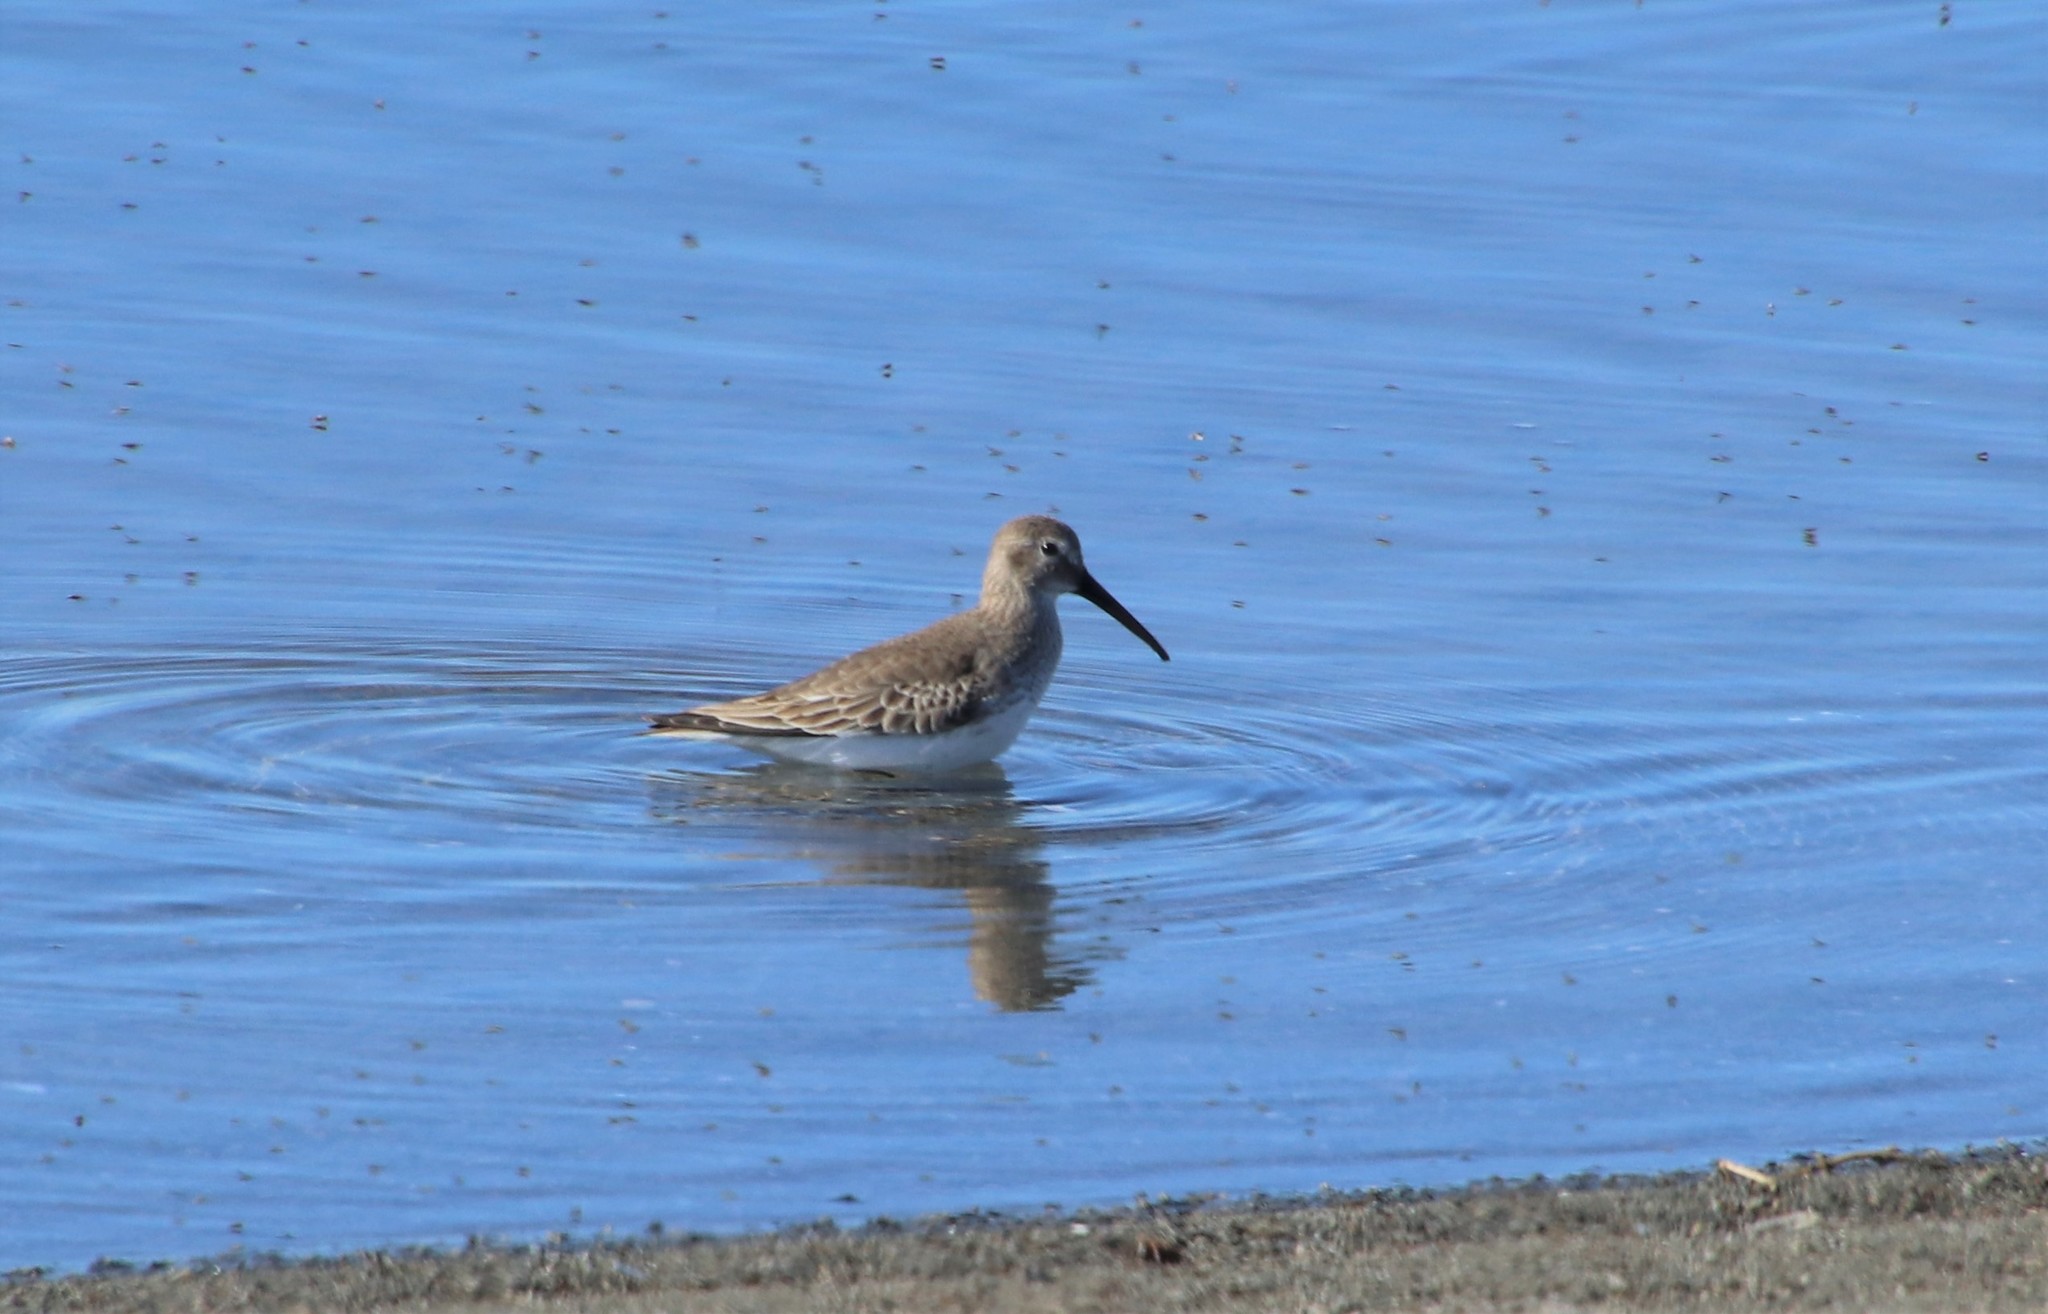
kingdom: Animalia
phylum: Chordata
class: Aves
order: Charadriiformes
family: Scolopacidae
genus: Calidris
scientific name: Calidris alpina
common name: Dunlin
